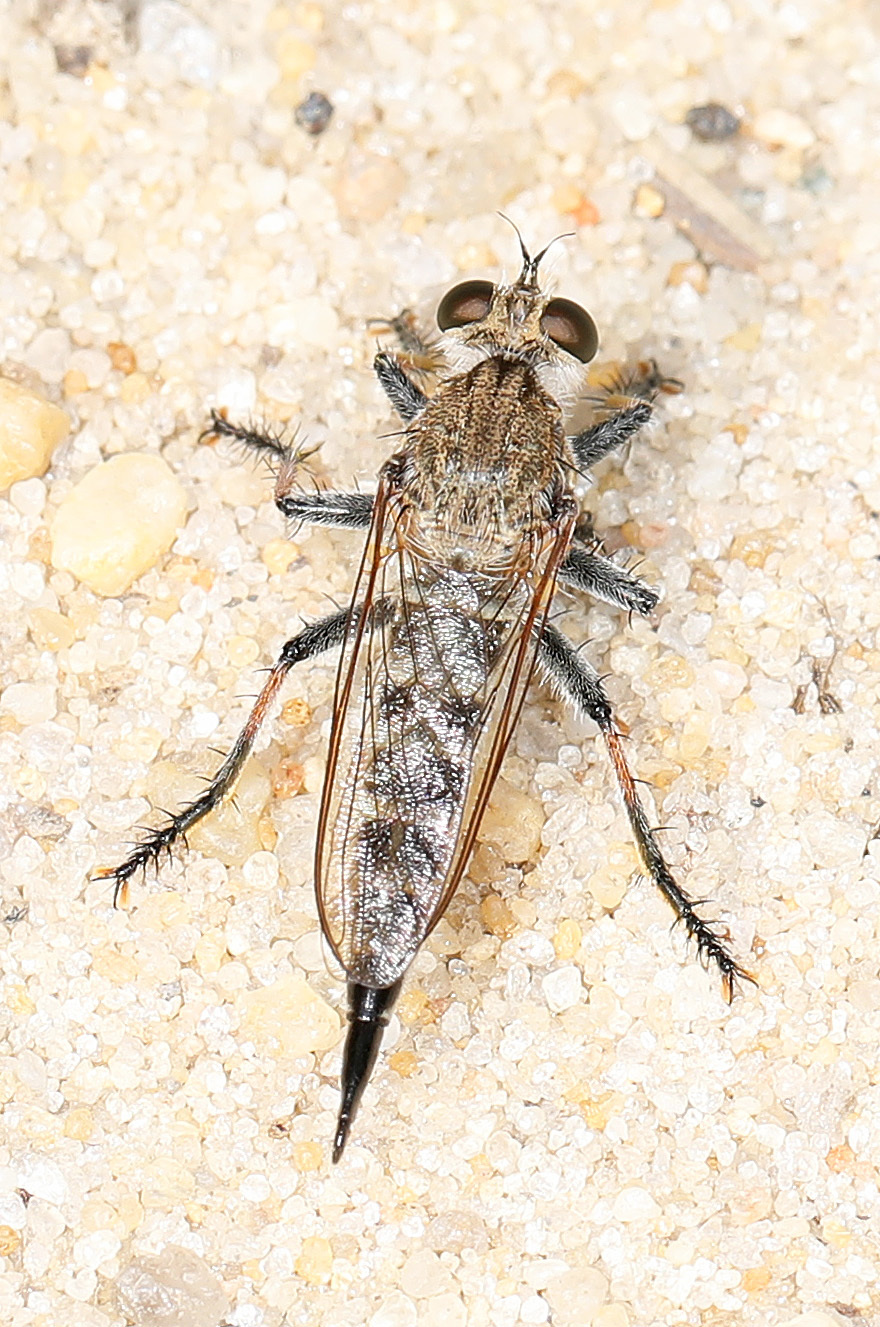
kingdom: Animalia
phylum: Arthropoda
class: Insecta
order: Diptera
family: Asilidae
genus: Efferia
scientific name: Efferia albibarbis
